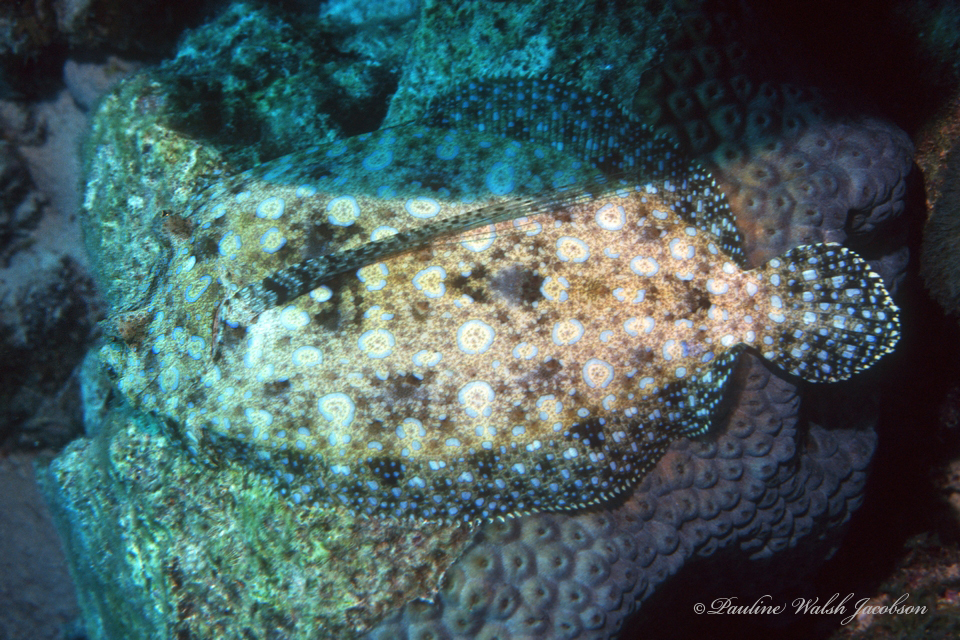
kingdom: Animalia
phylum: Chordata
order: Pleuronectiformes
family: Bothidae
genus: Bothus
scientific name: Bothus lunatus
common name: Peacock flounder
